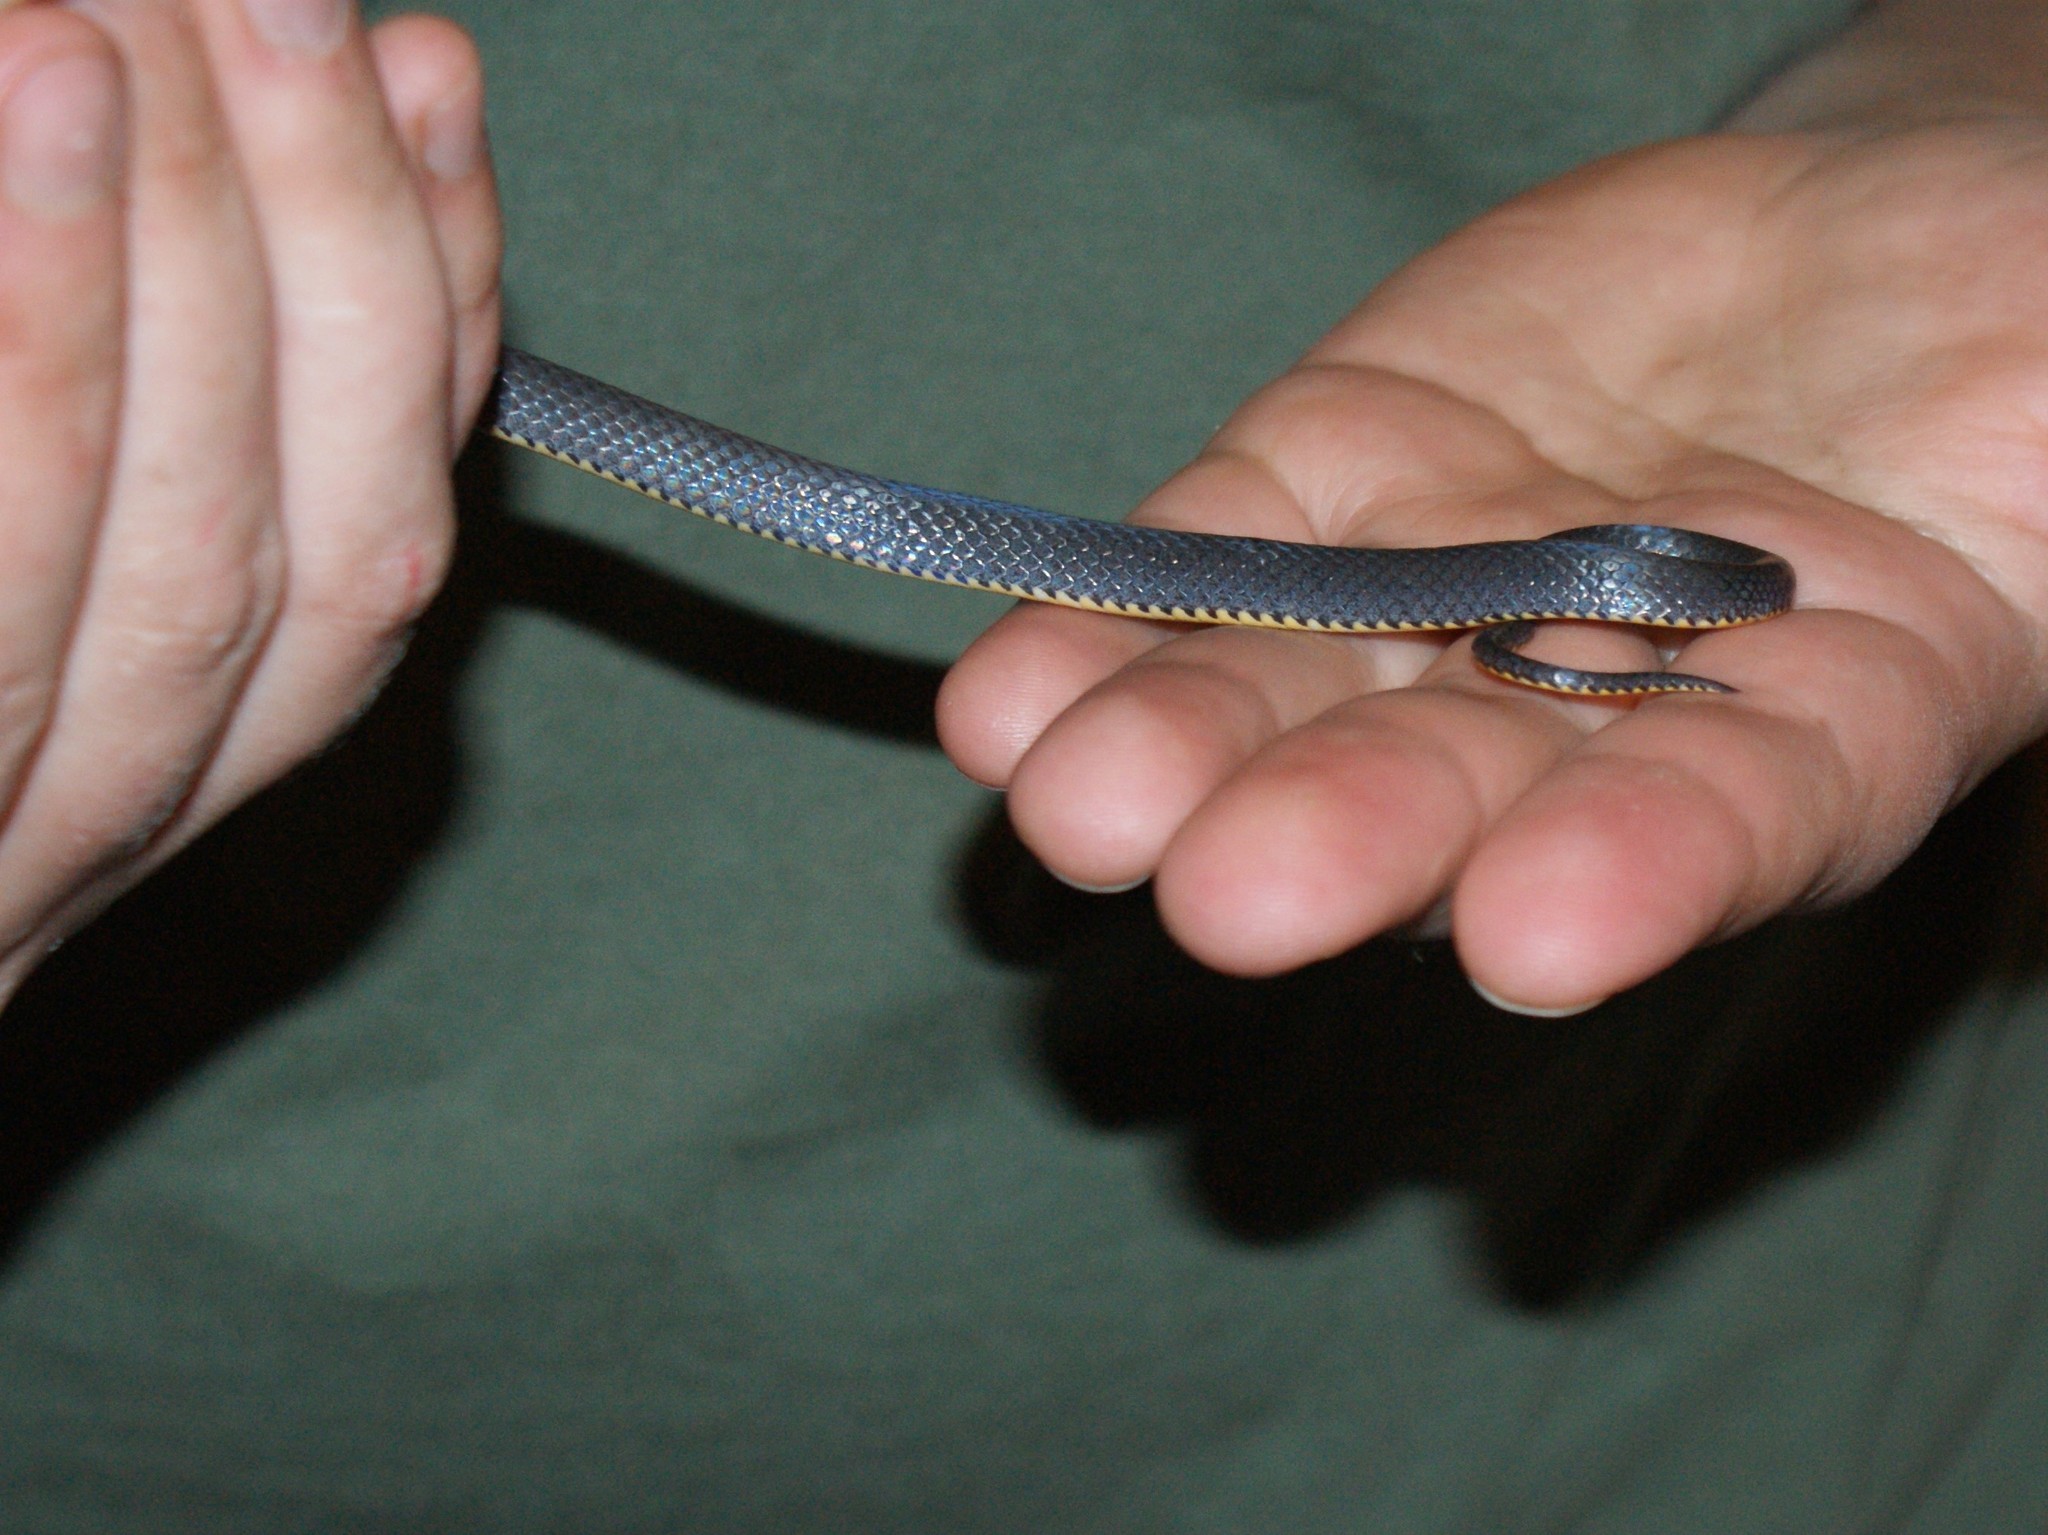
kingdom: Animalia
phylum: Chordata
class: Squamata
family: Colubridae
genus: Diadophis
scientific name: Diadophis punctatus
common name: Ringneck snake
